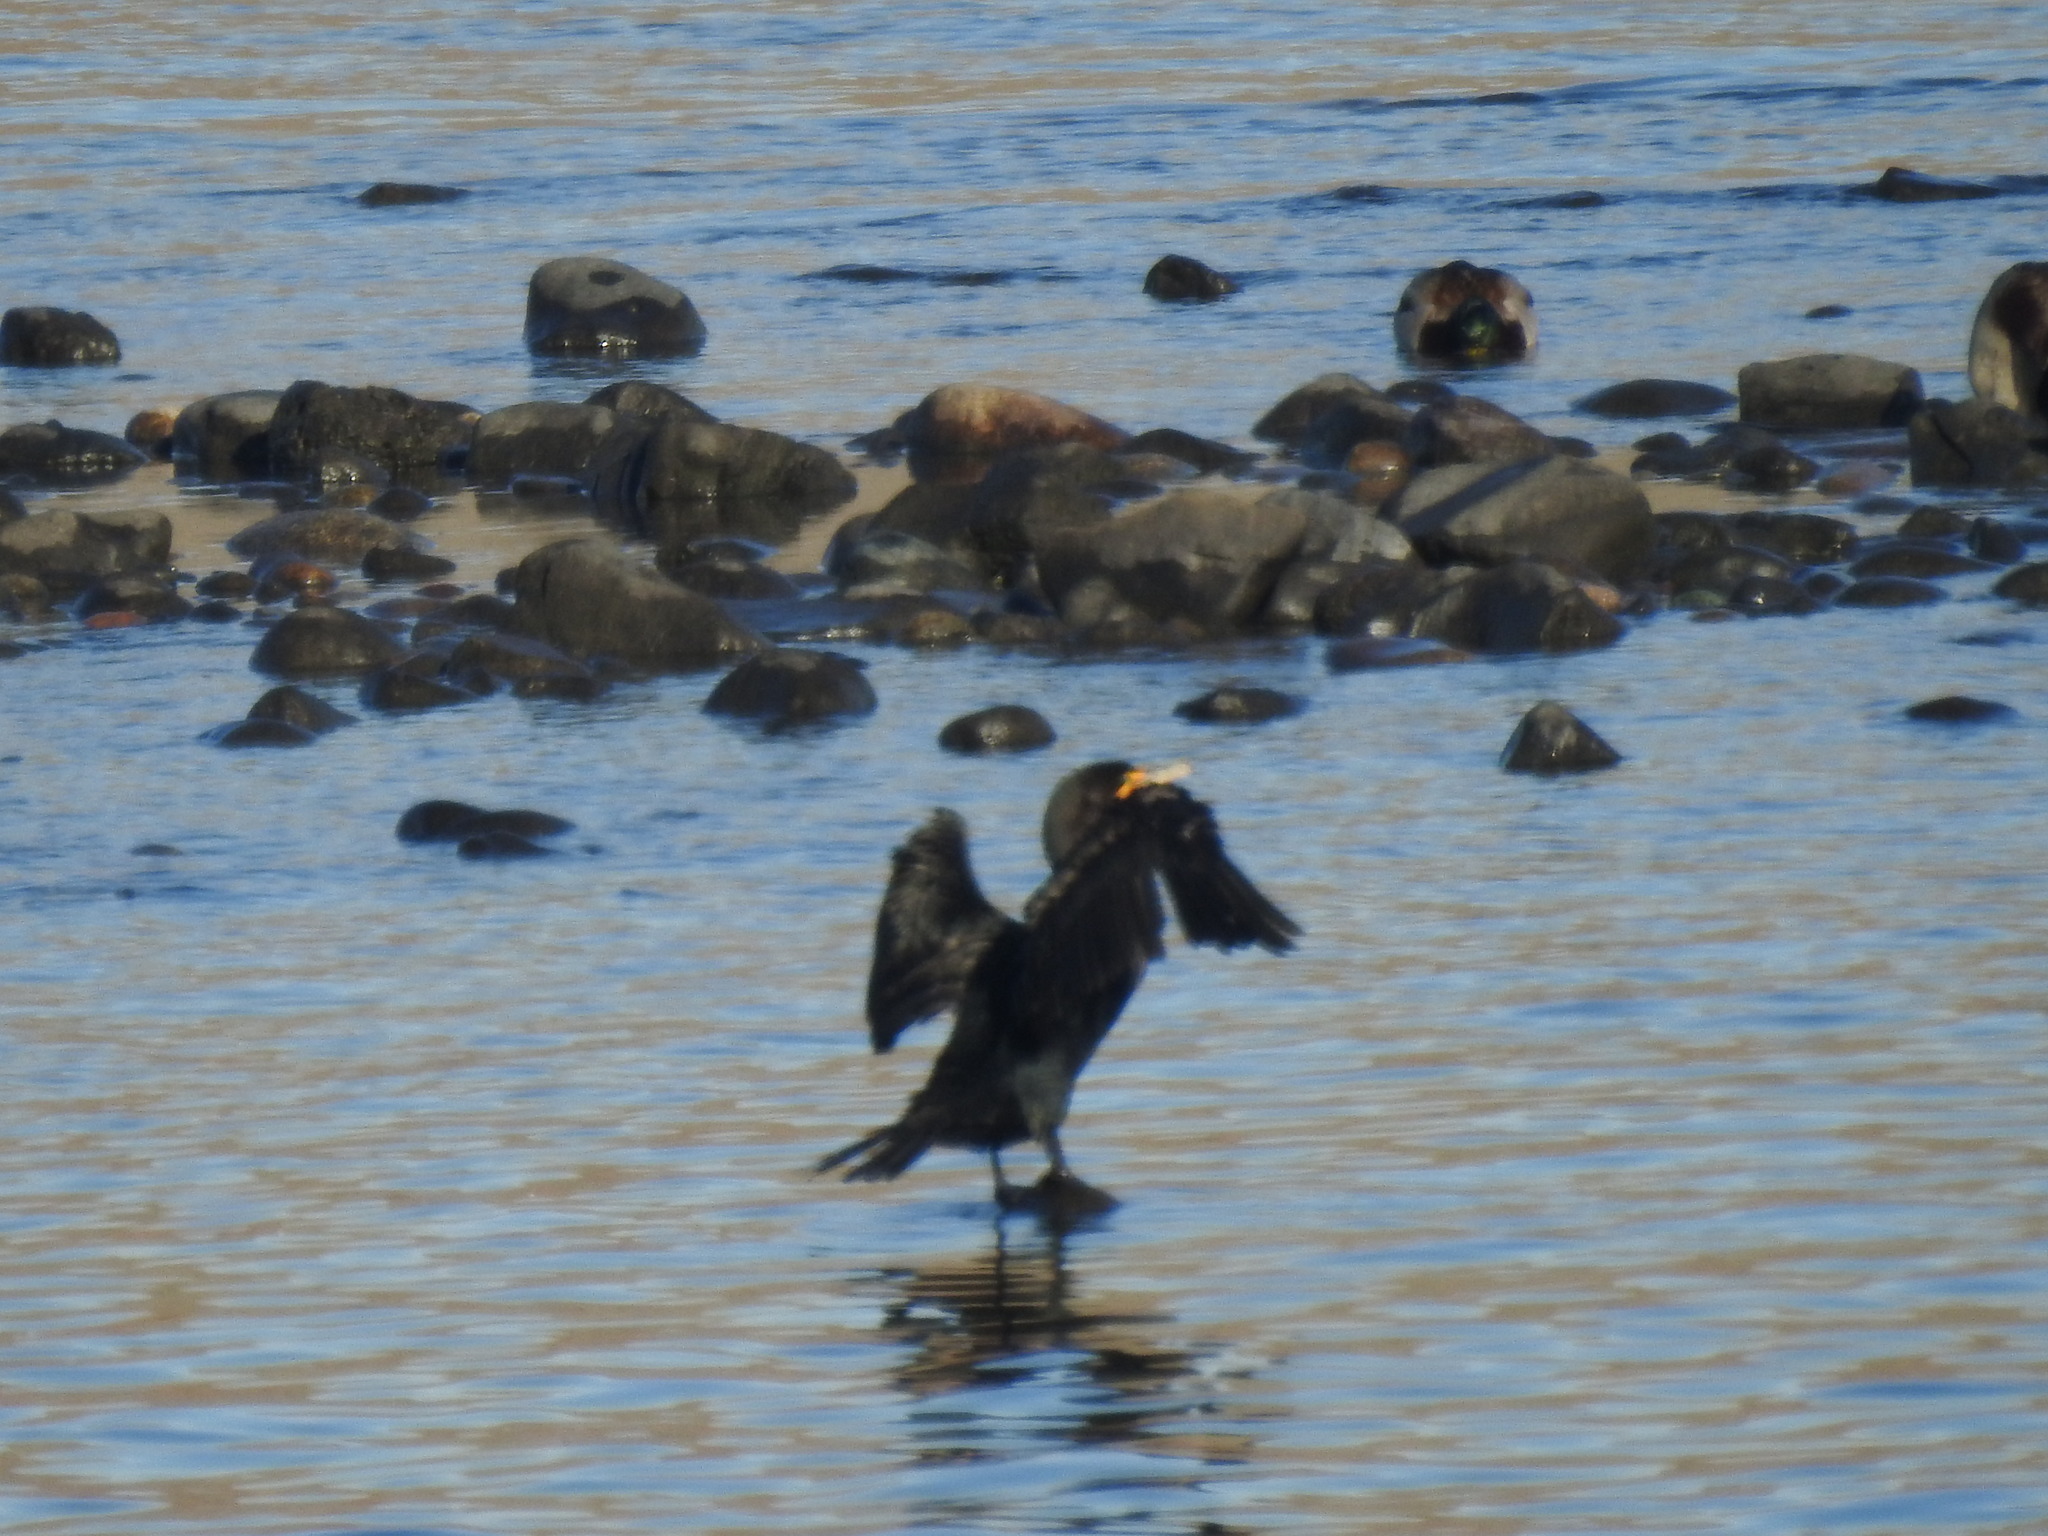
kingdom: Animalia
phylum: Chordata
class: Aves
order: Suliformes
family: Phalacrocoracidae
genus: Phalacrocorax
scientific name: Phalacrocorax auritus
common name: Double-crested cormorant
